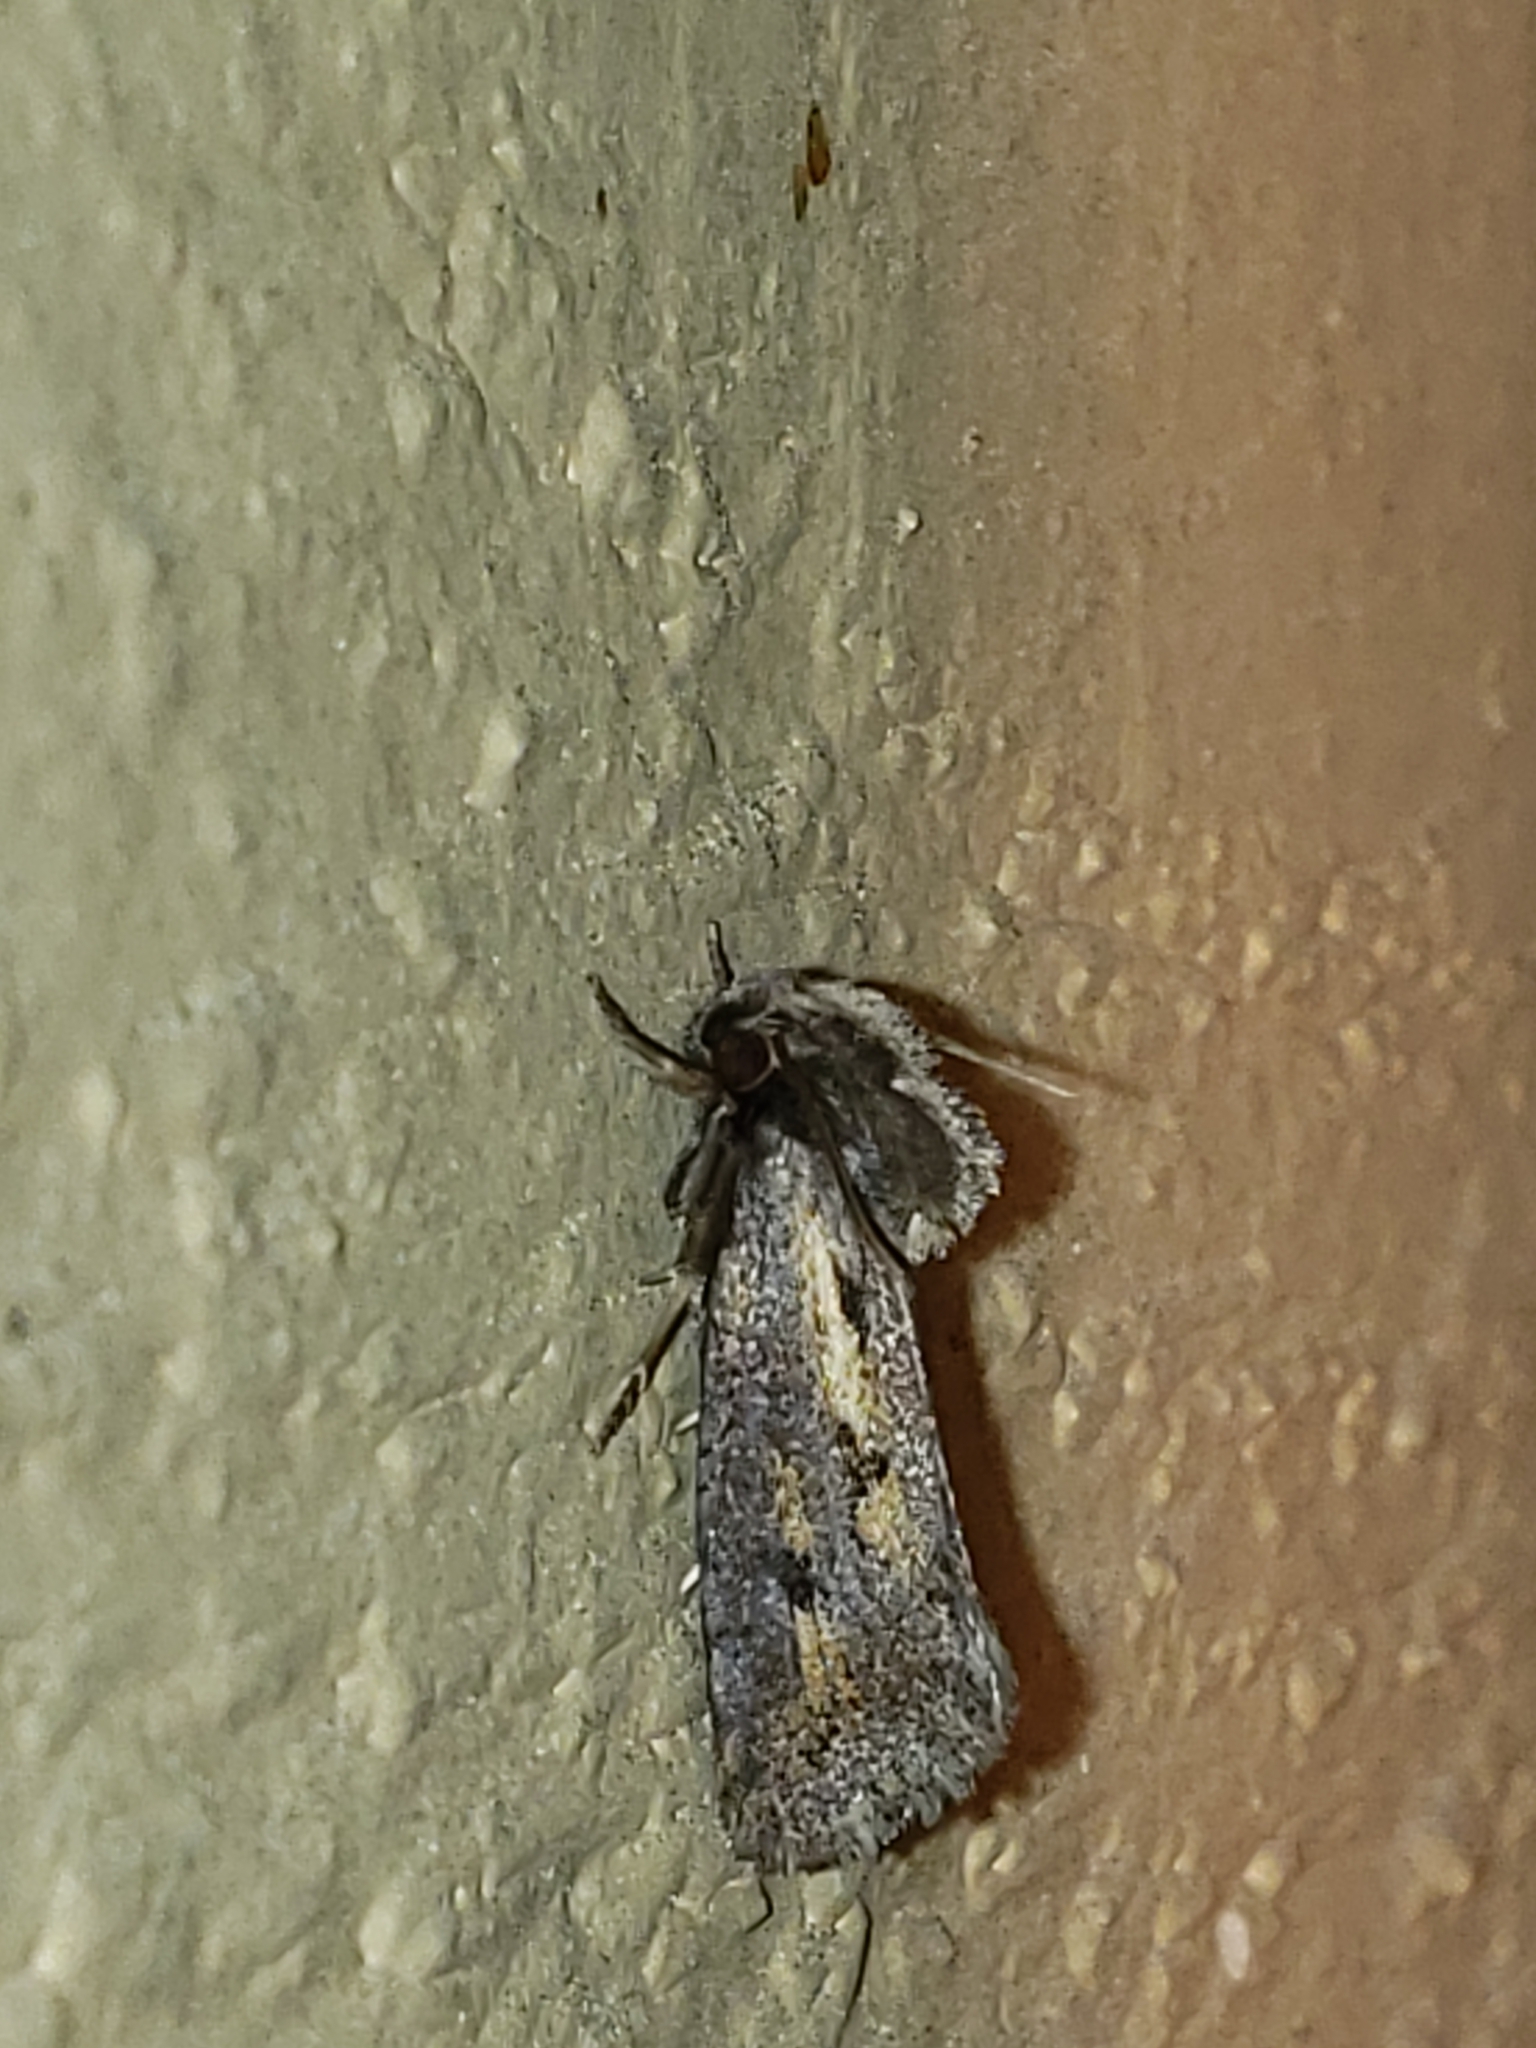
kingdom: Animalia
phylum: Arthropoda
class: Insecta
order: Lepidoptera
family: Tineidae
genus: Acrolophus
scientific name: Acrolophus popeanella
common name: Clemens' grass tubeworm moth
